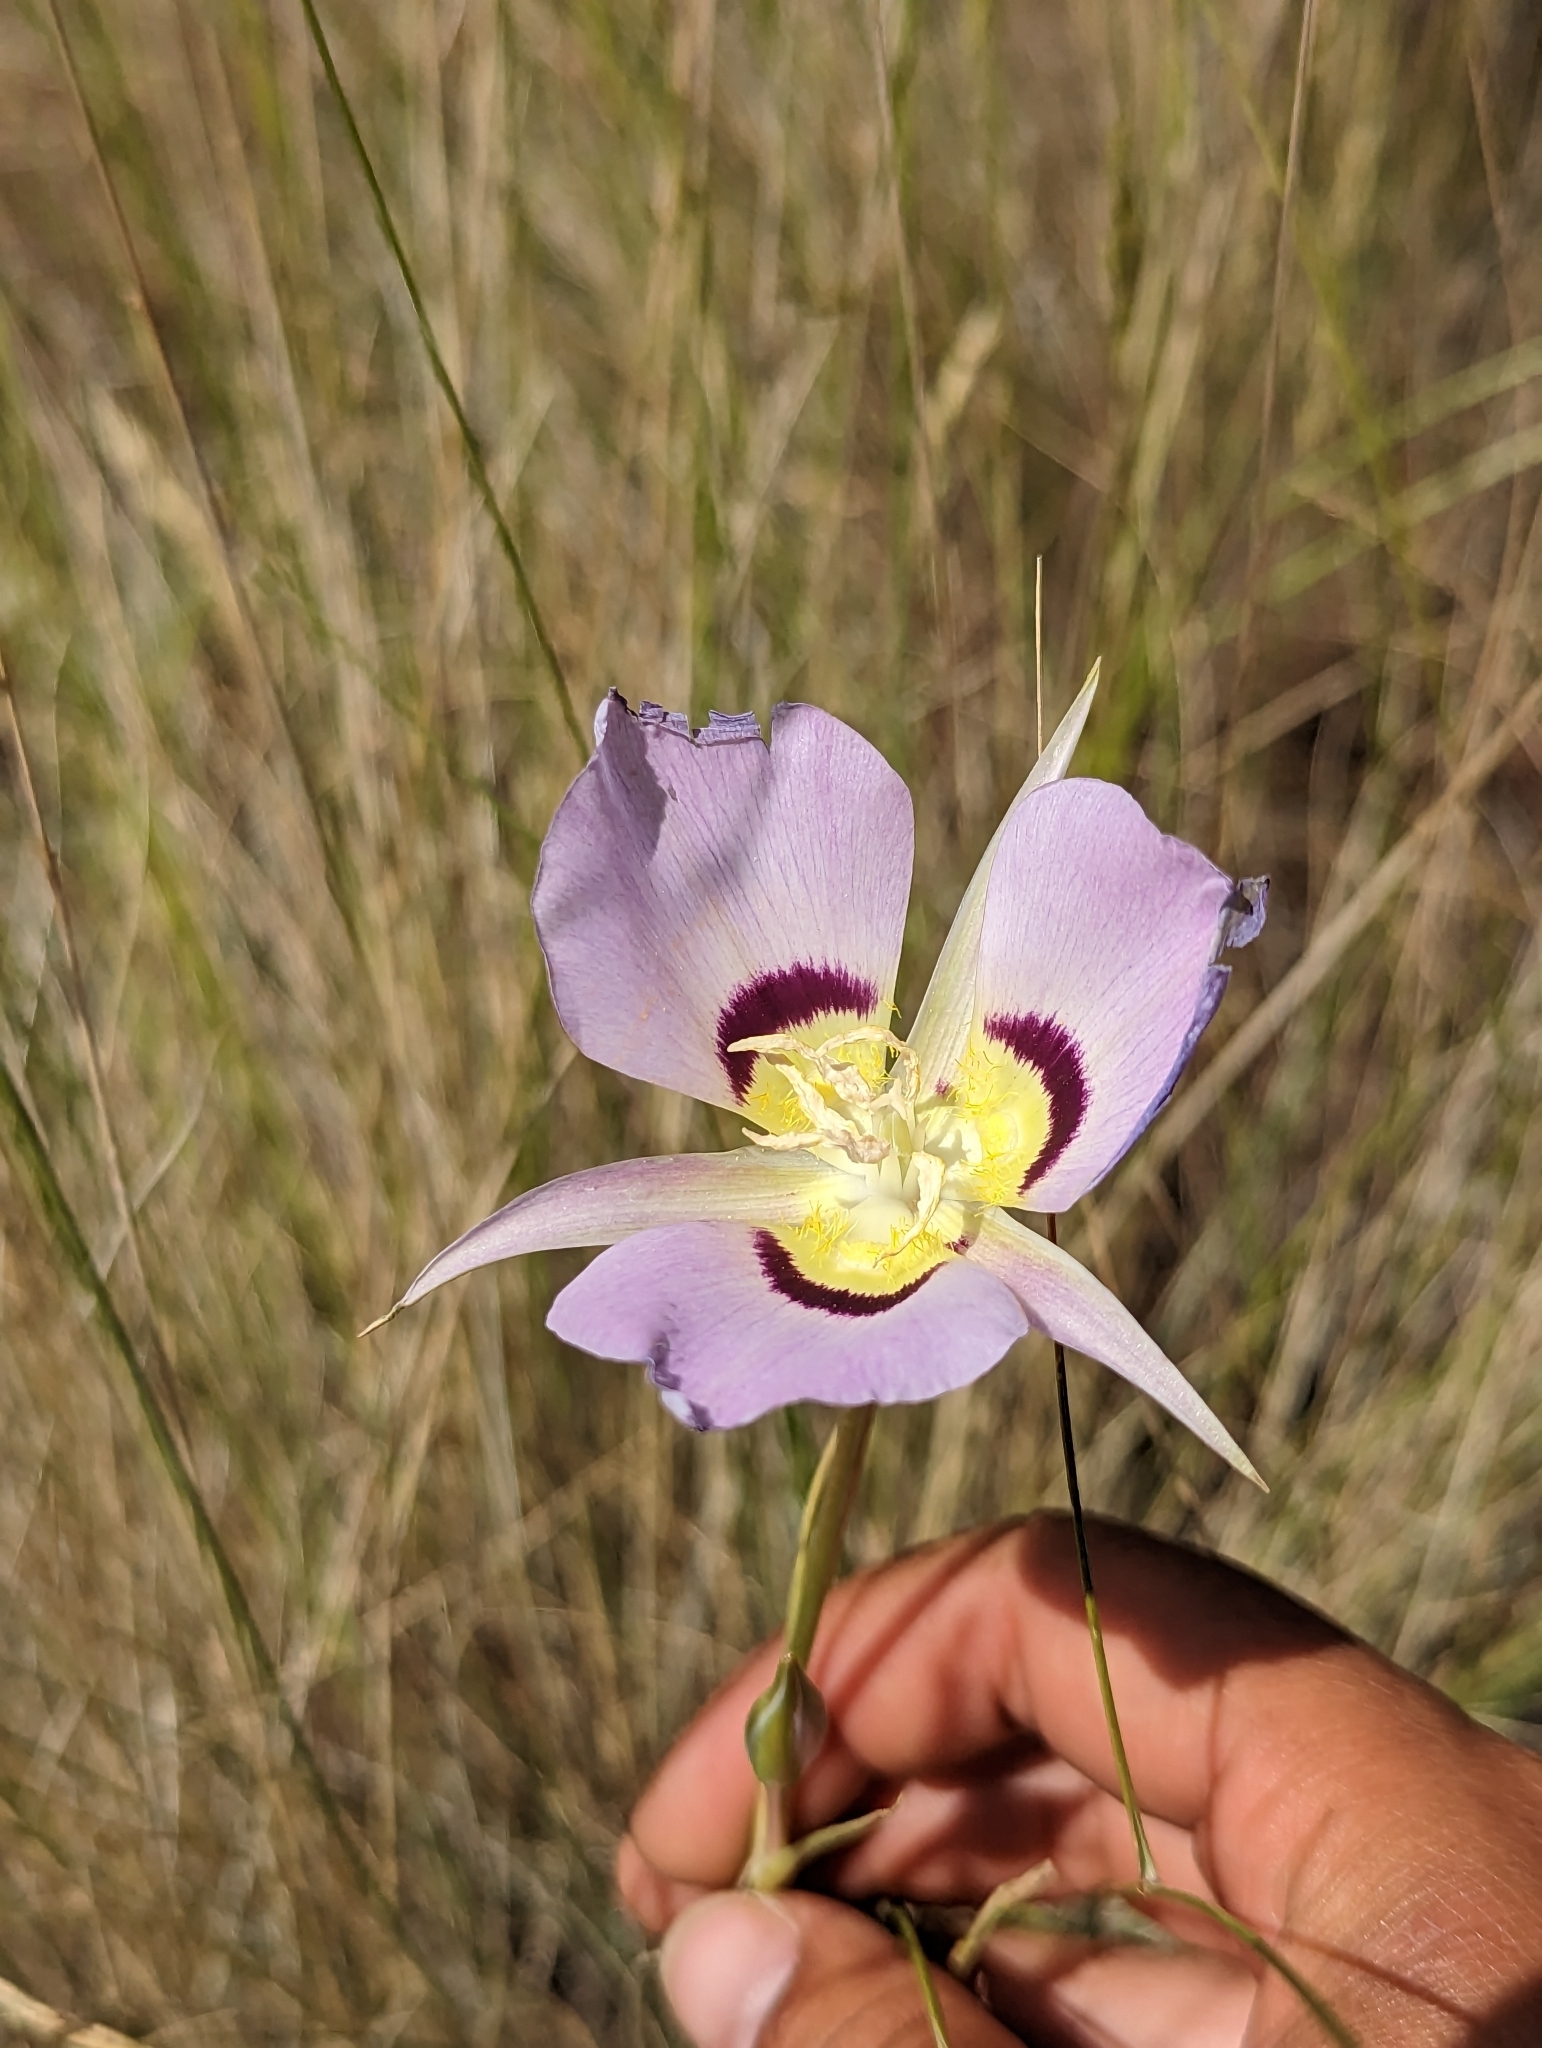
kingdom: Plantae
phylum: Tracheophyta
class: Liliopsida
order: Liliales
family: Liliaceae
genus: Calochortus
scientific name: Calochortus macrocarpus
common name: Green-band mariposa lily
